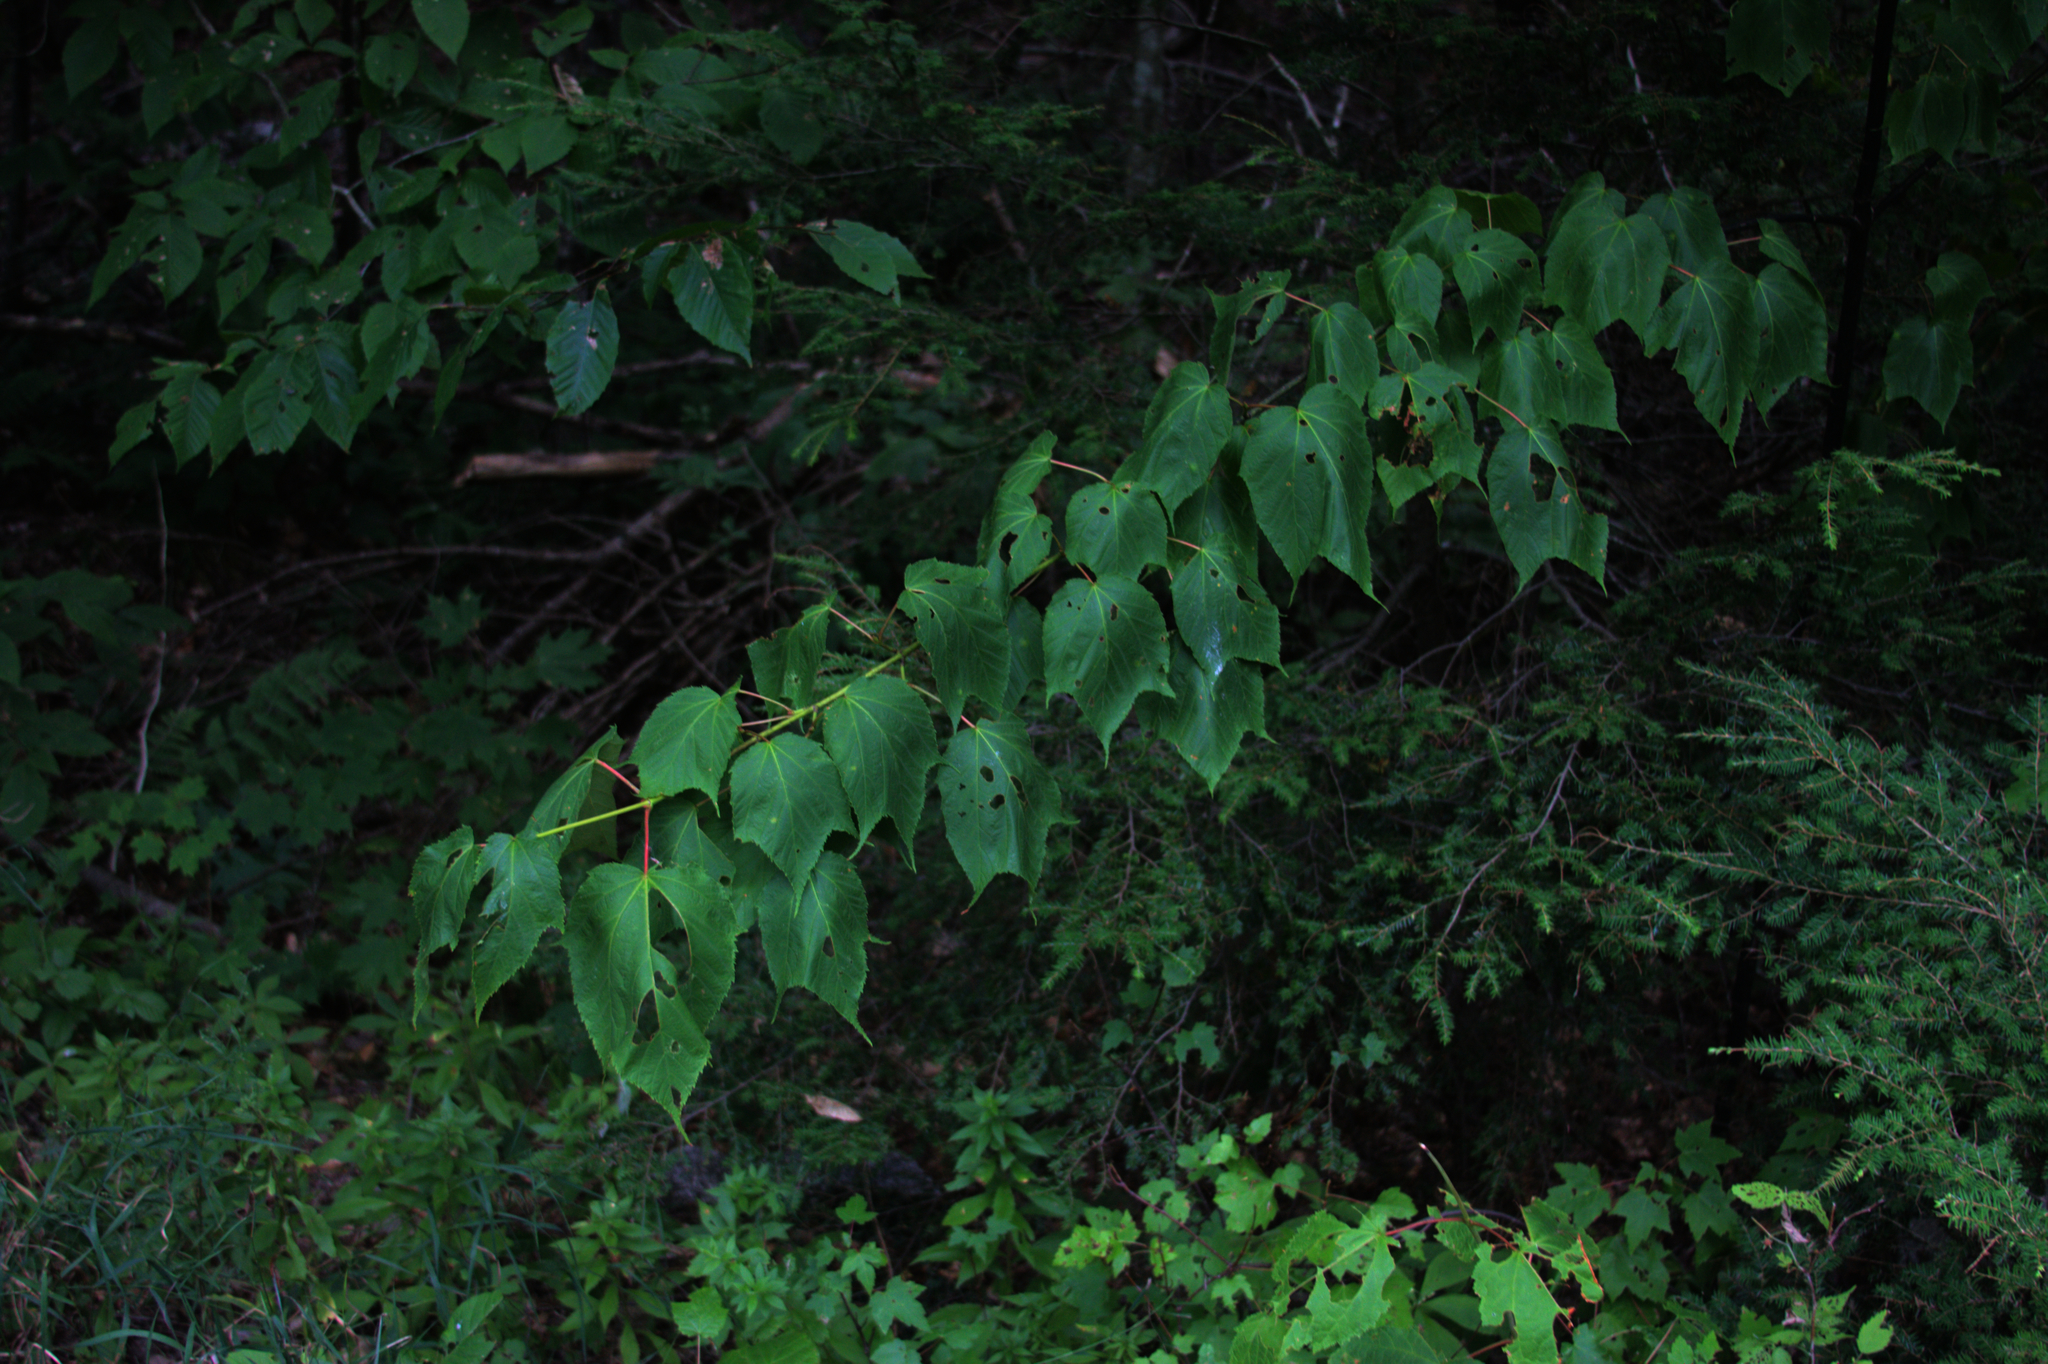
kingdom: Plantae
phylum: Tracheophyta
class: Magnoliopsida
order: Sapindales
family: Sapindaceae
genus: Acer
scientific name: Acer pensylvanicum
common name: Moosewood
